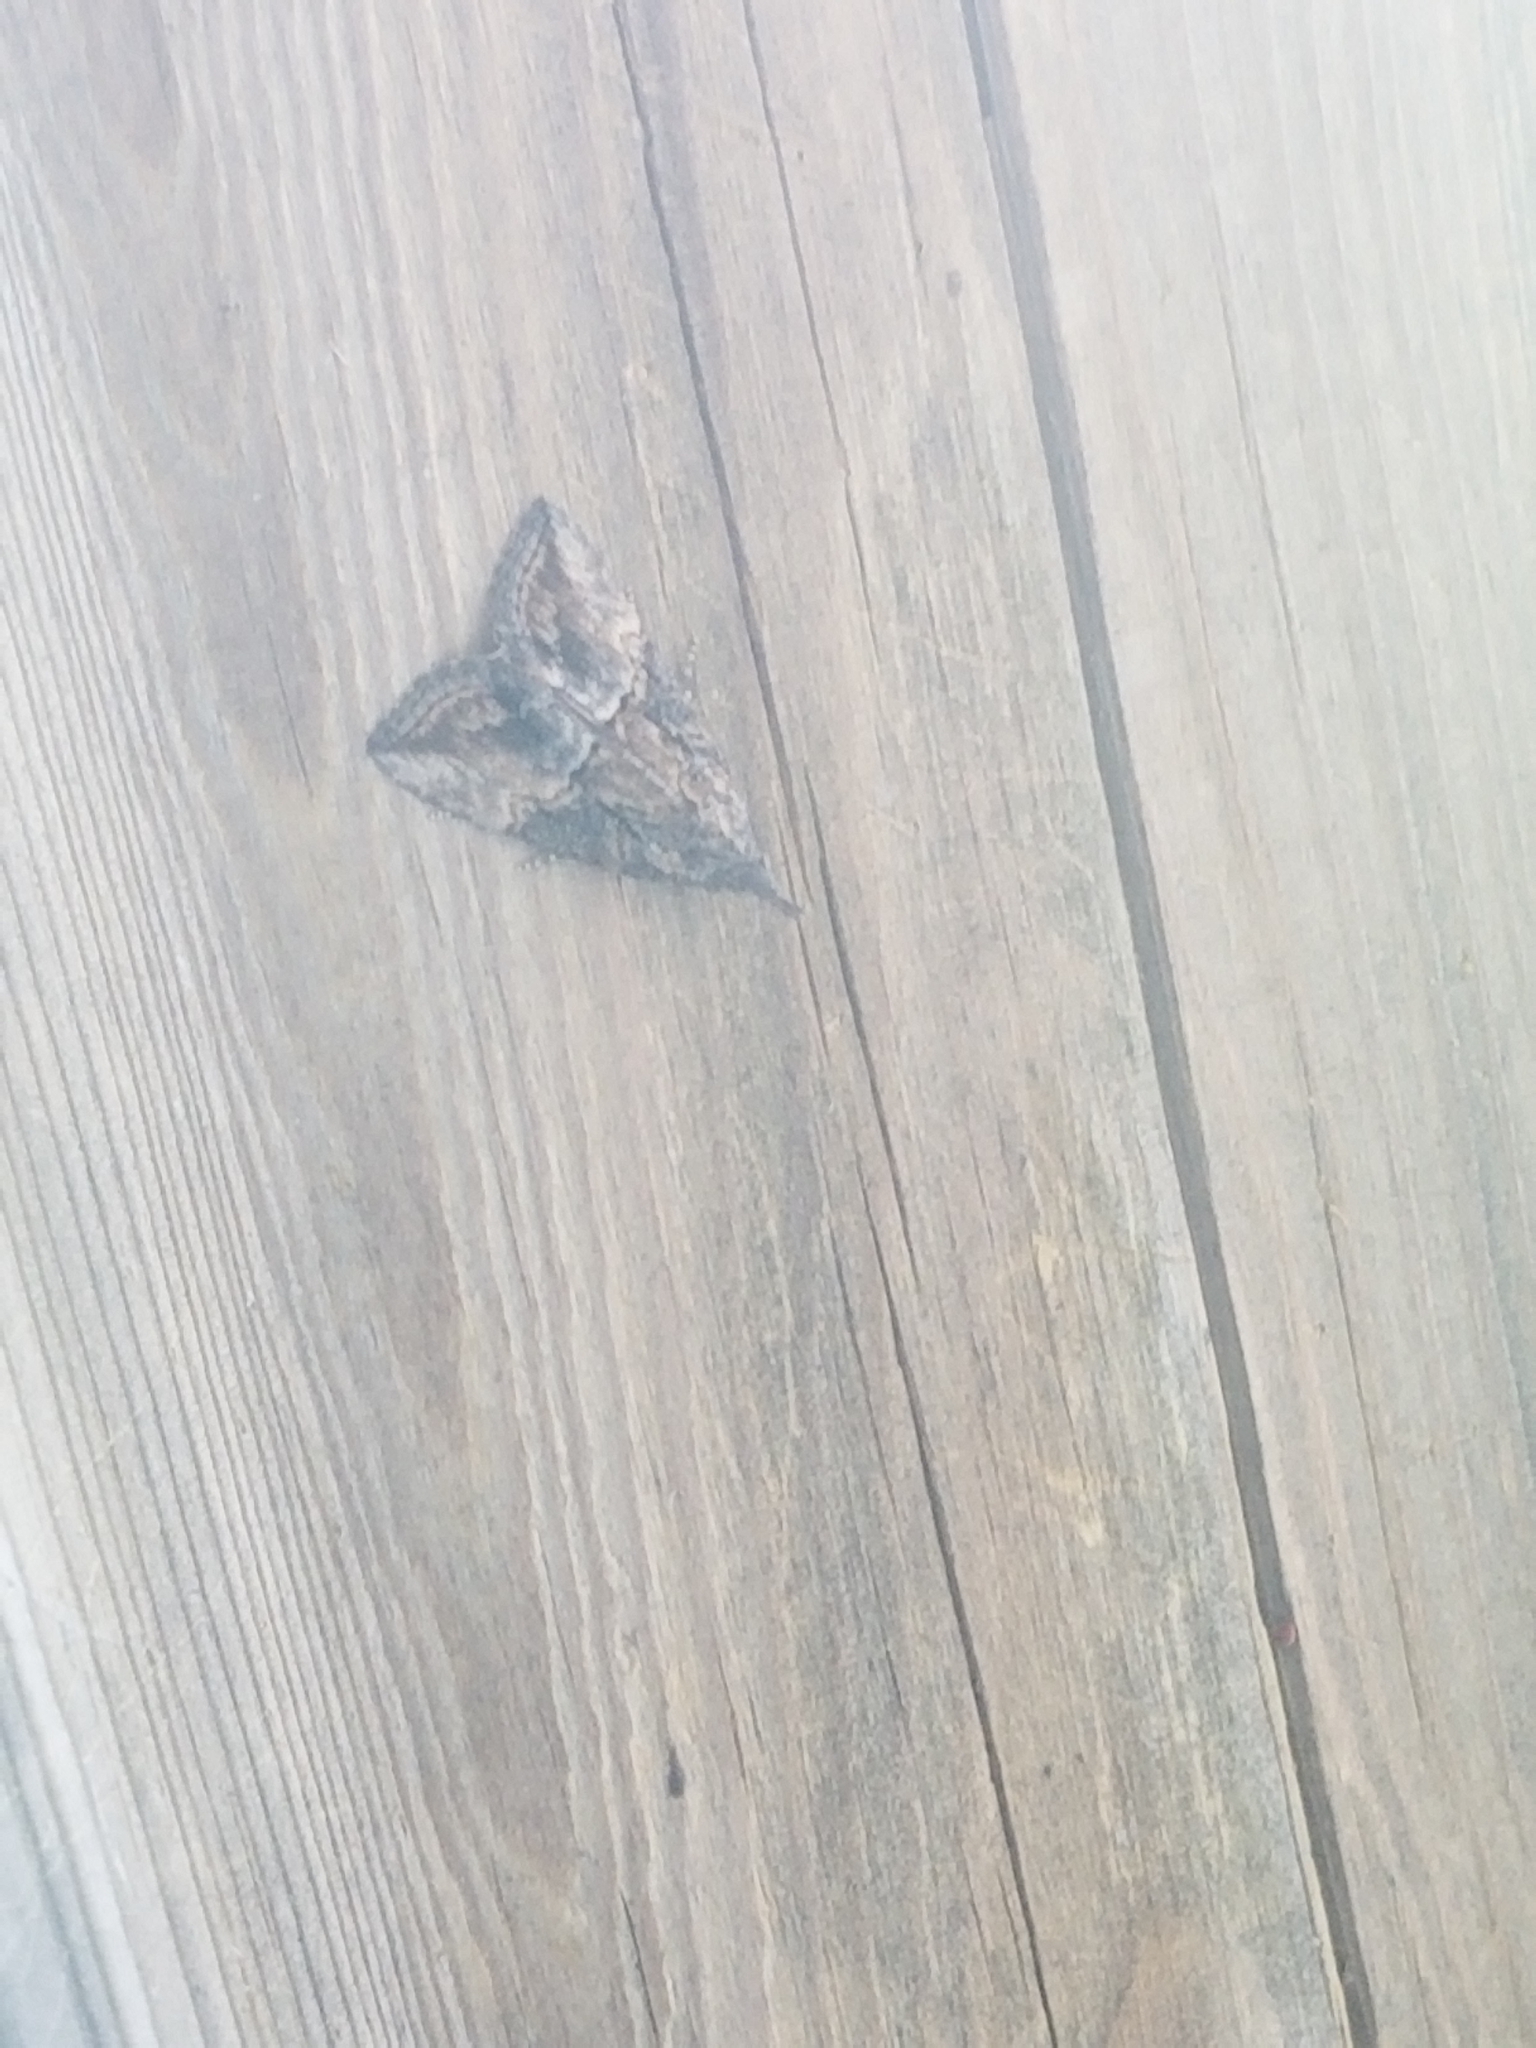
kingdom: Animalia
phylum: Arthropoda
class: Insecta
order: Lepidoptera
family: Erebidae
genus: Hypena
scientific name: Hypena scabra
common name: Green cloverworm
